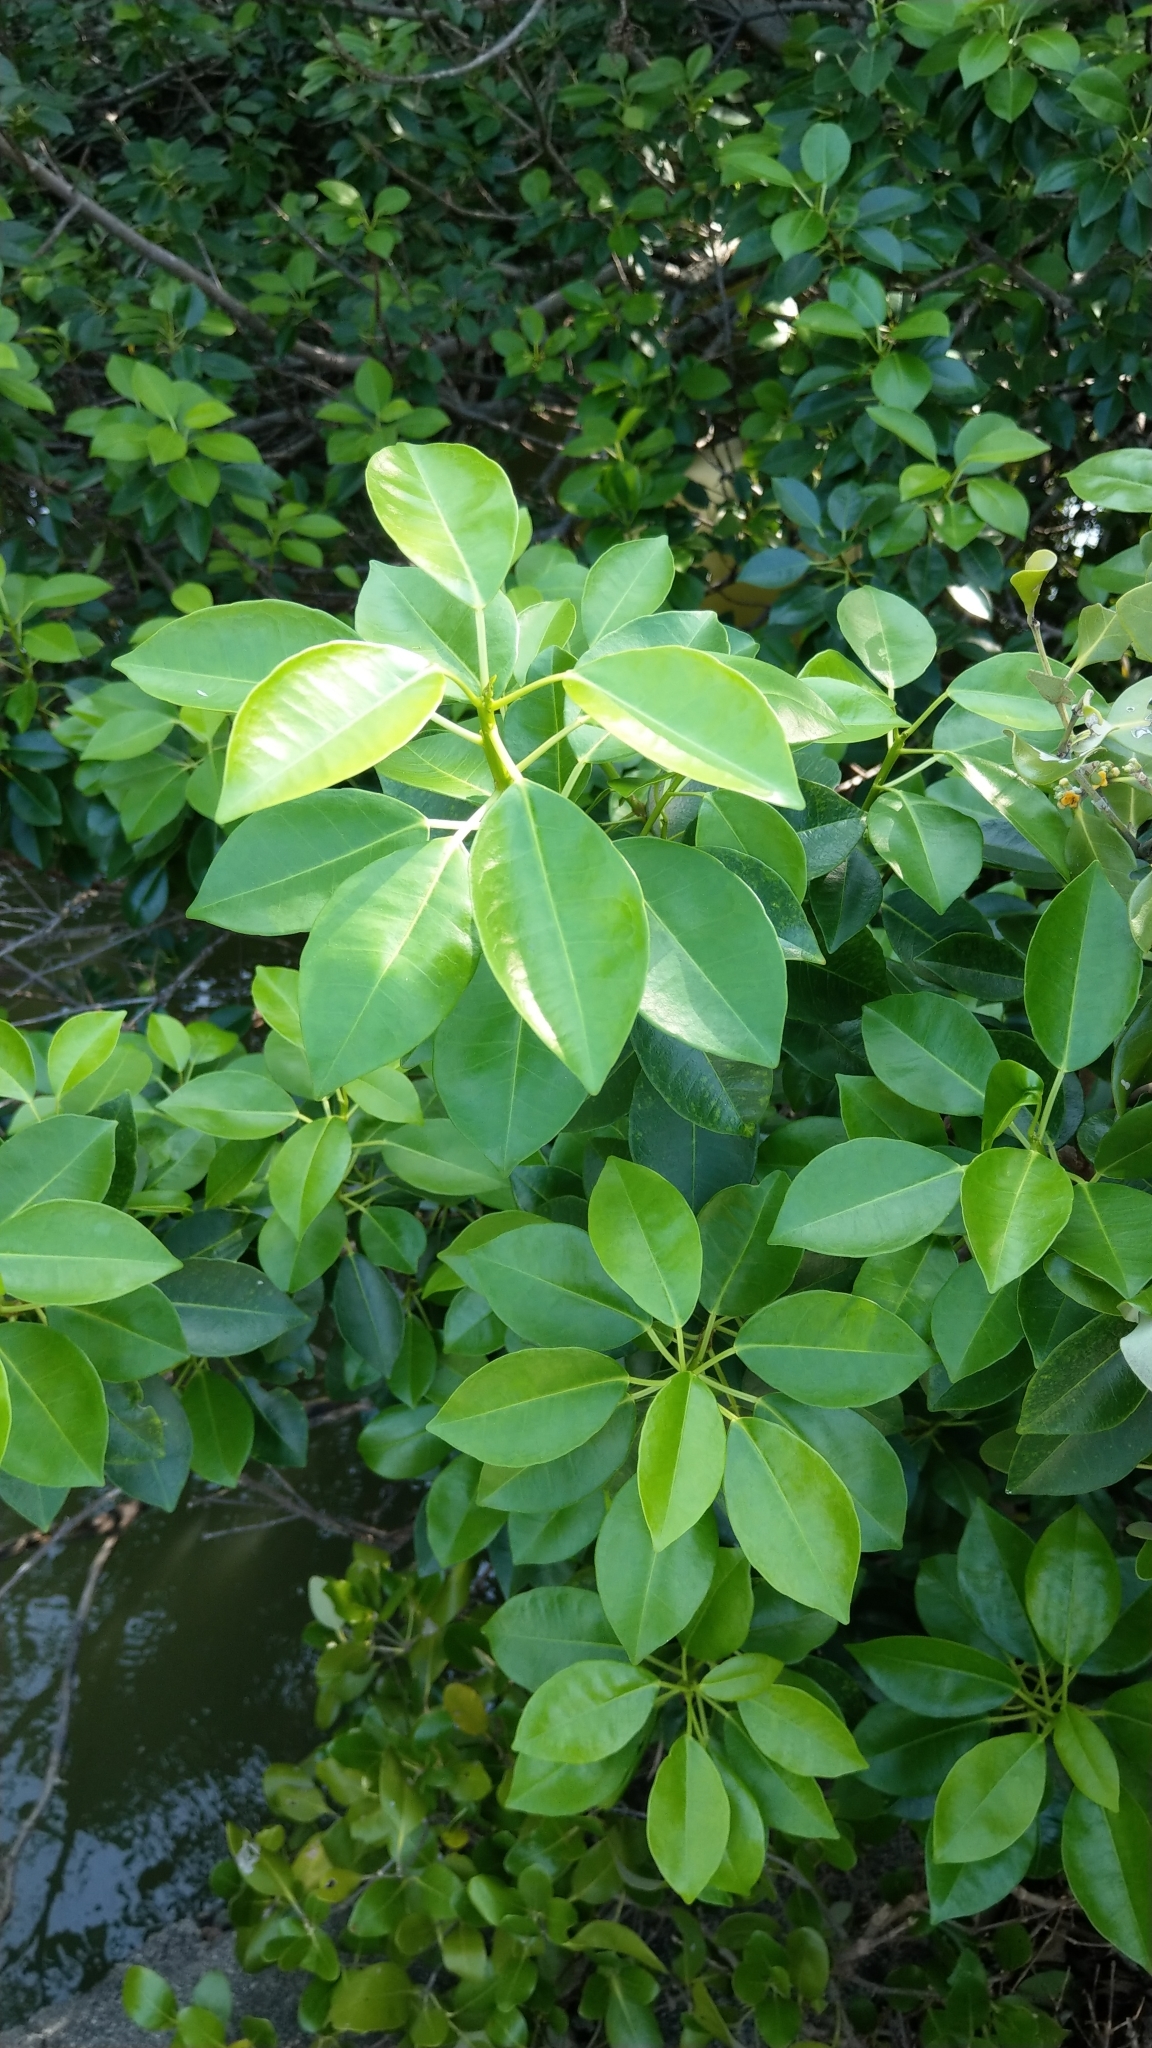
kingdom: Plantae
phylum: Tracheophyta
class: Magnoliopsida
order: Malpighiales
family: Euphorbiaceae
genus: Excoecaria
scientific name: Excoecaria agallocha
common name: River poisontree
